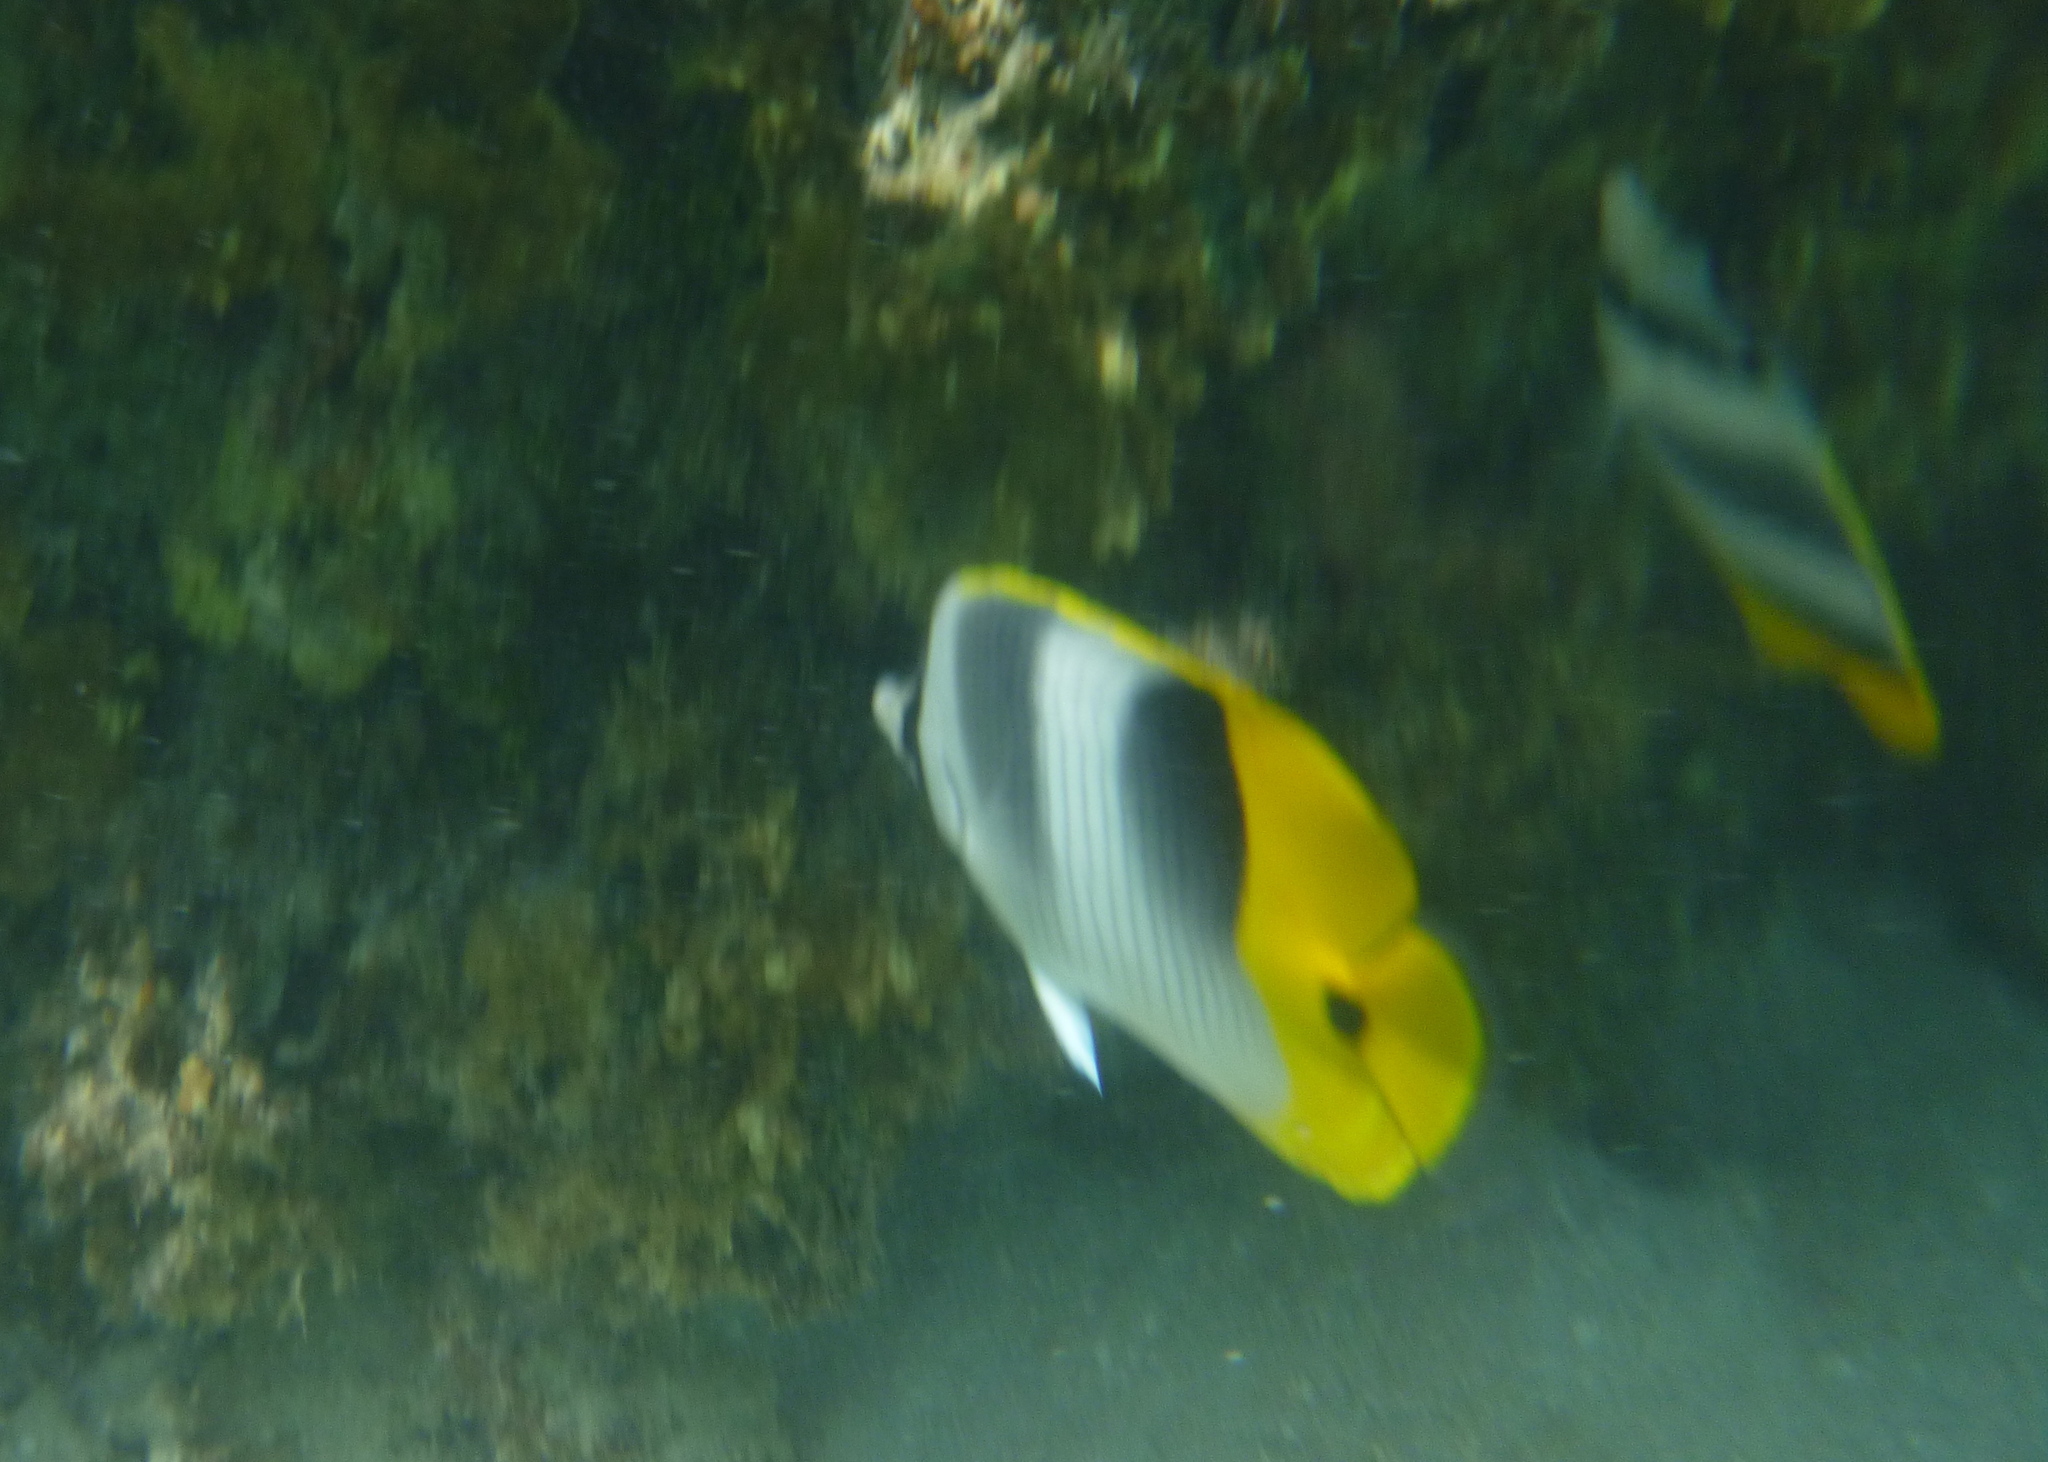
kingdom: Animalia
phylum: Chordata
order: Perciformes
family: Chaetodontidae
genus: Chaetodon
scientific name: Chaetodon ulietensis
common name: Pacific double-saddle butterflyfish
